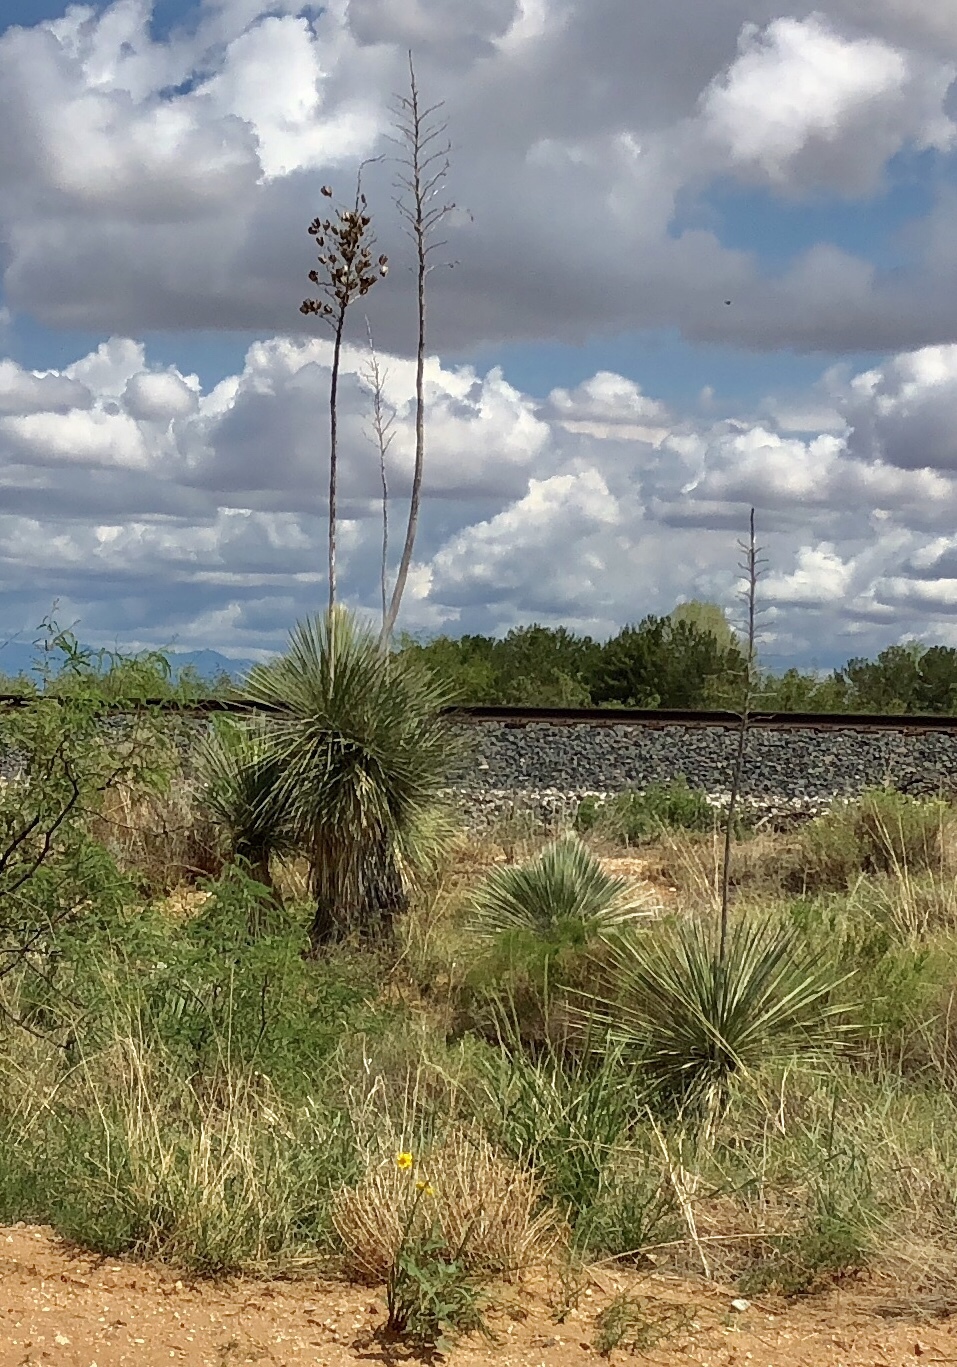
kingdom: Plantae
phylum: Tracheophyta
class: Liliopsida
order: Asparagales
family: Asparagaceae
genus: Yucca
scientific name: Yucca elata
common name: Palmella
